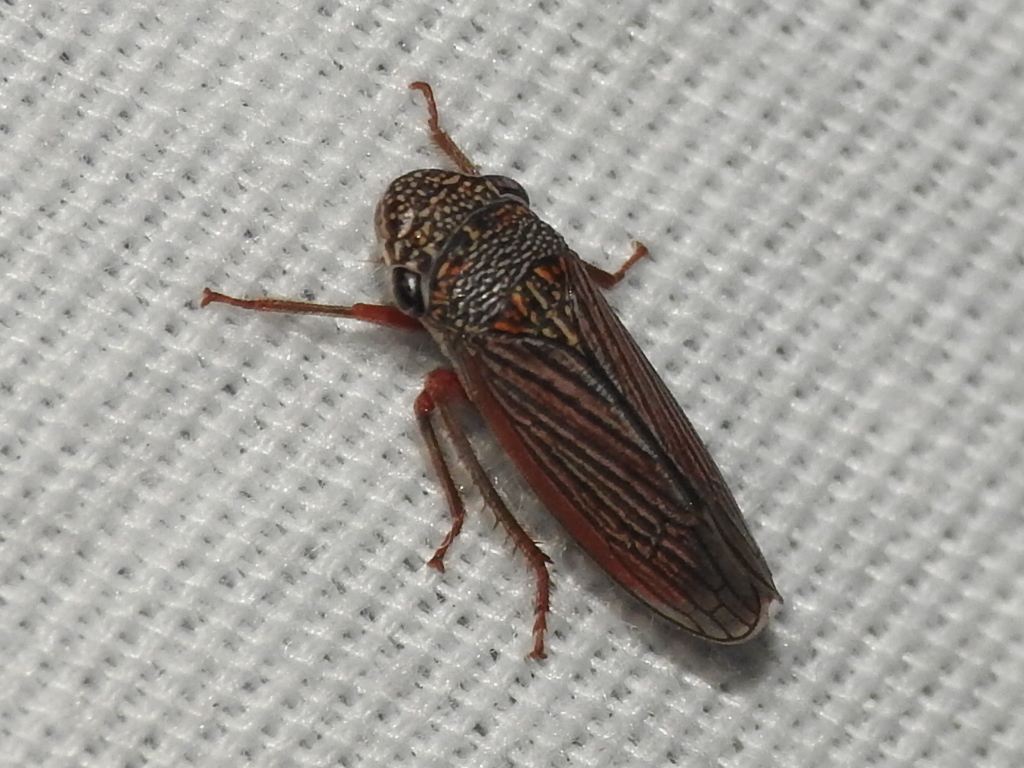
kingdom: Animalia
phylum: Arthropoda
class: Insecta
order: Hemiptera
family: Cicadellidae
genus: Cuerna
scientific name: Cuerna costalis
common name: Lateral-lined sharpshooter
